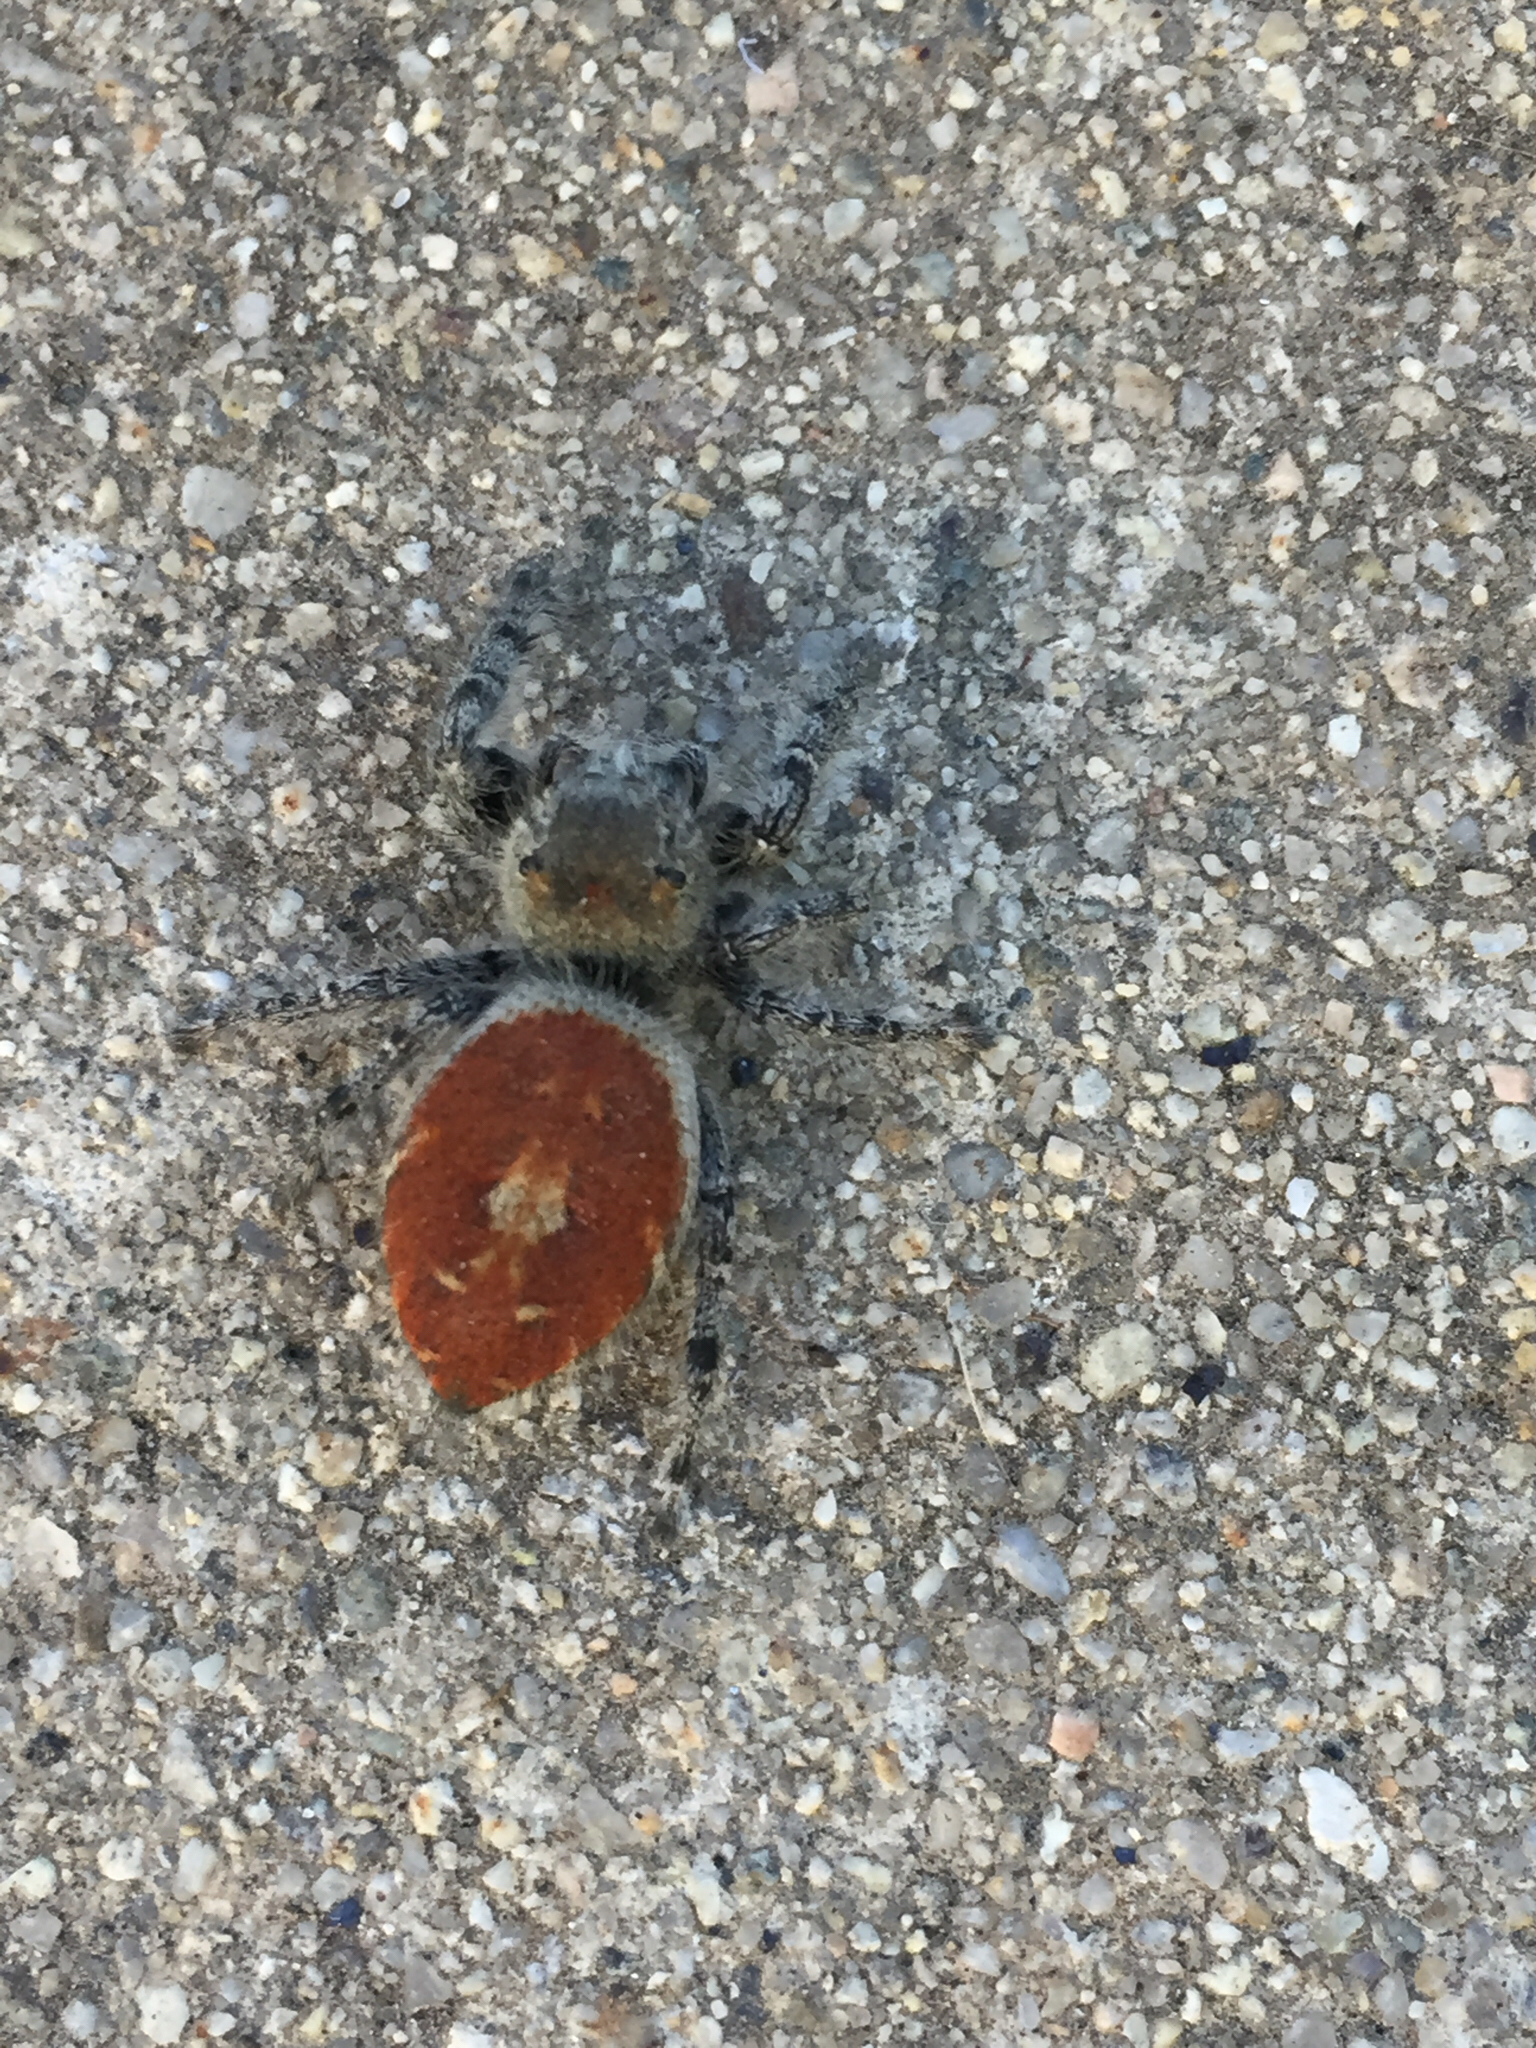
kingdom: Animalia
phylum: Arthropoda
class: Arachnida
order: Araneae
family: Salticidae
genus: Phidippus
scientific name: Phidippus adumbratus
